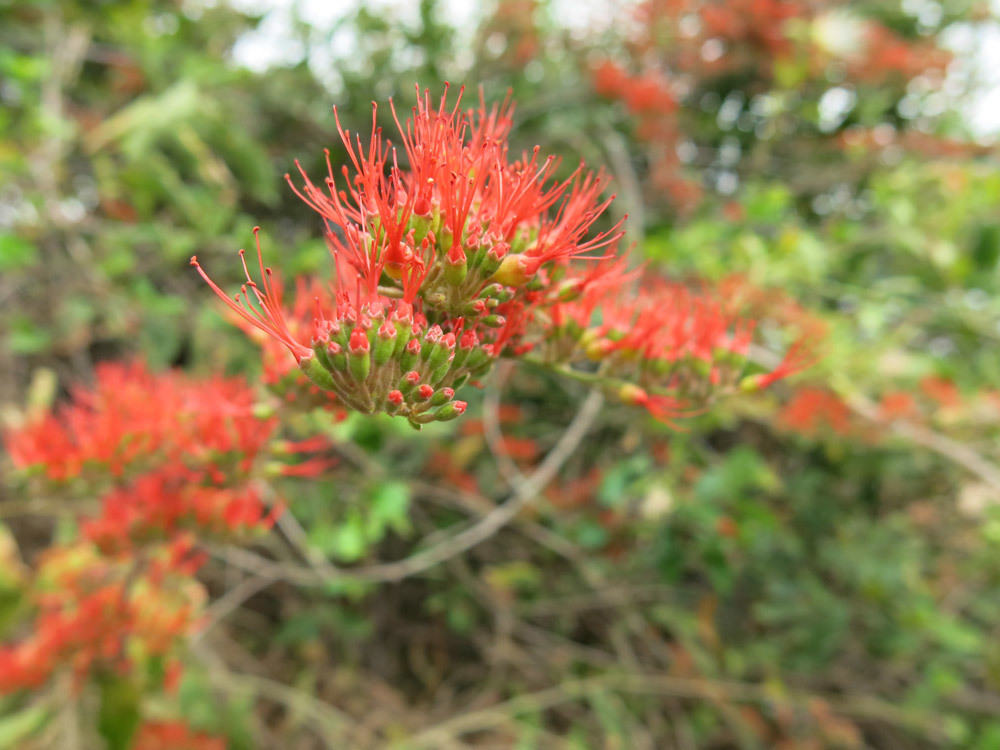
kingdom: Plantae
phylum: Tracheophyta
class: Magnoliopsida
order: Myrtales
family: Combretaceae
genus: Combretum
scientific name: Combretum microphyllum
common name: Burningbush
